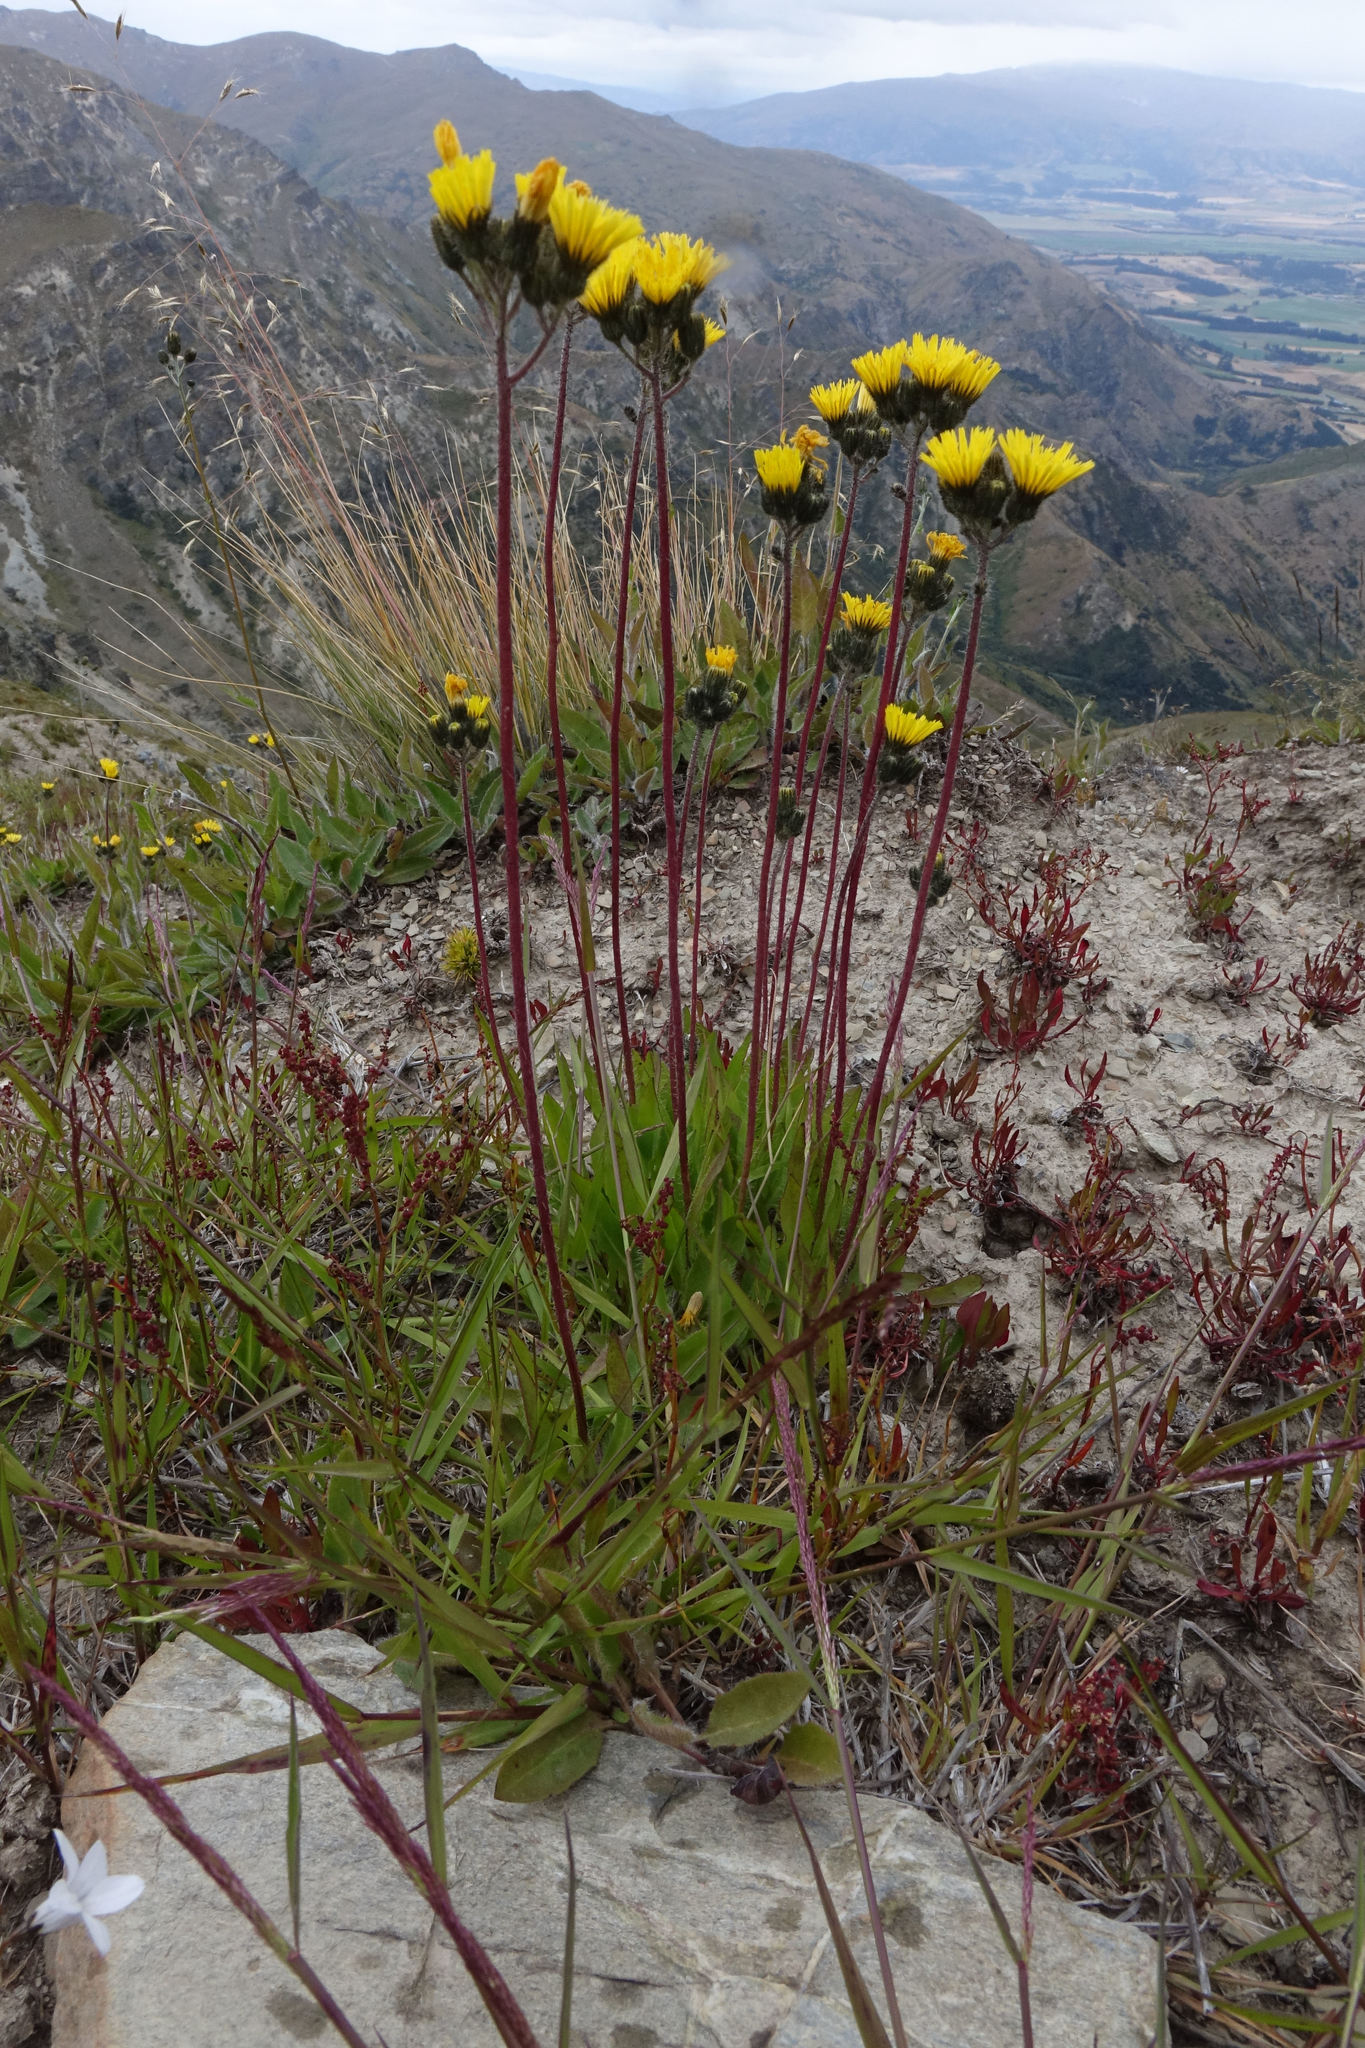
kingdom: Plantae
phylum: Tracheophyta
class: Magnoliopsida
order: Asterales
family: Asteraceae
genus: Pilosella
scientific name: Pilosella piloselloides
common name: Glaucous king-devil
